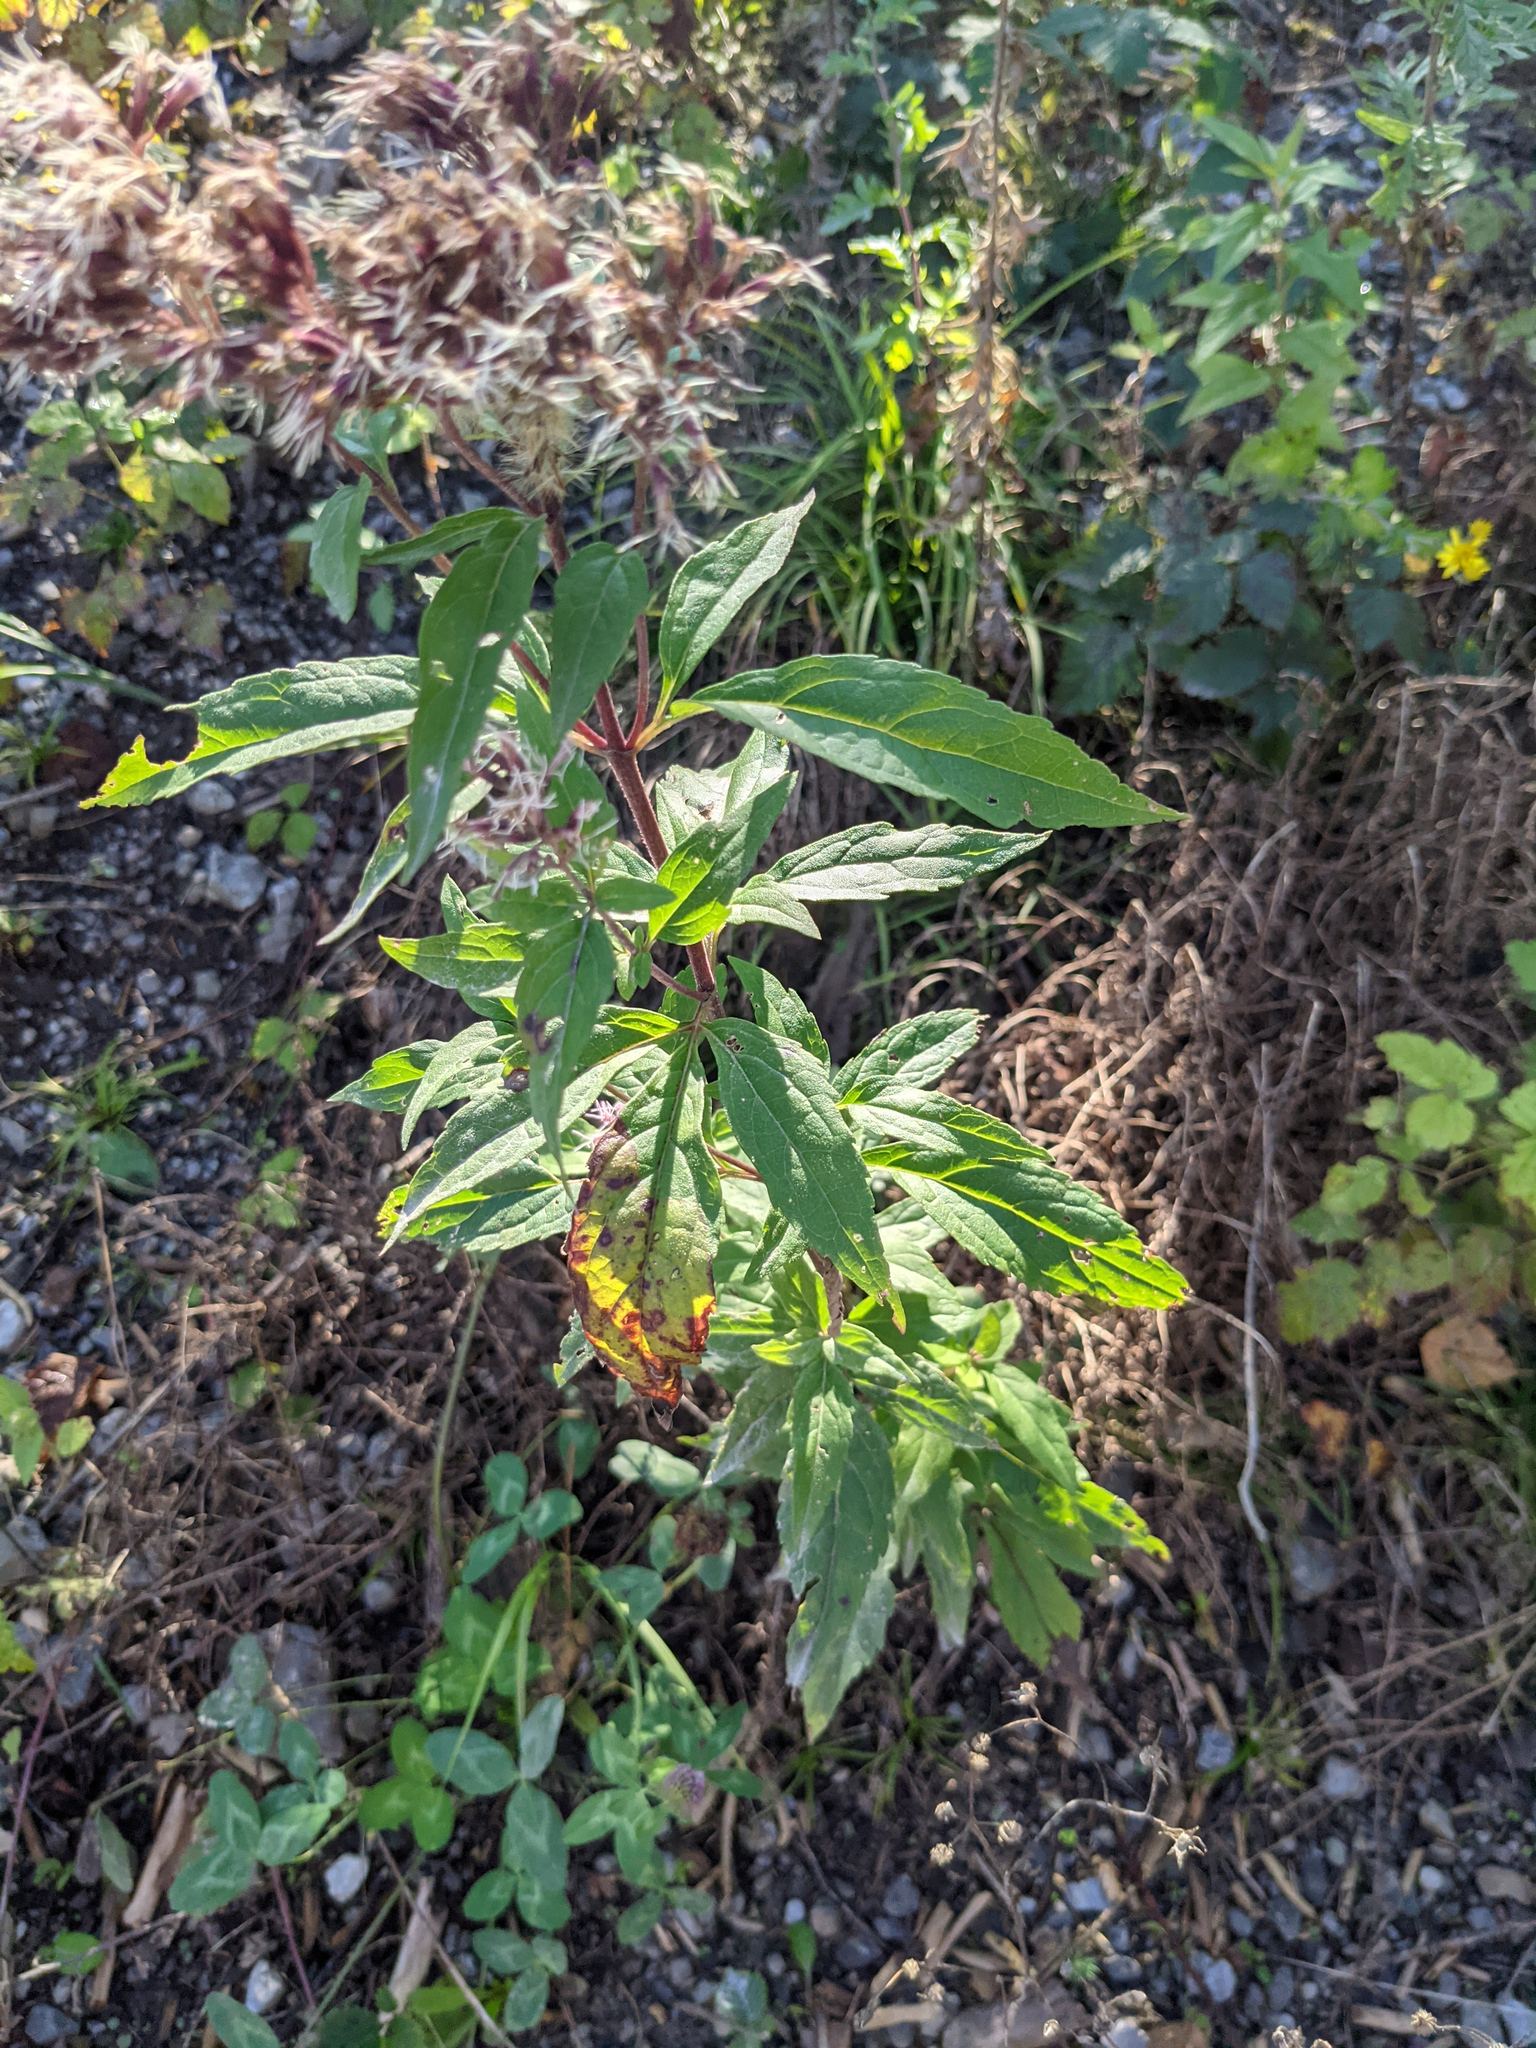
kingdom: Plantae
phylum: Tracheophyta
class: Magnoliopsida
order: Asterales
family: Asteraceae
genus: Eupatorium
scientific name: Eupatorium cannabinum
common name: Hemp-agrimony
